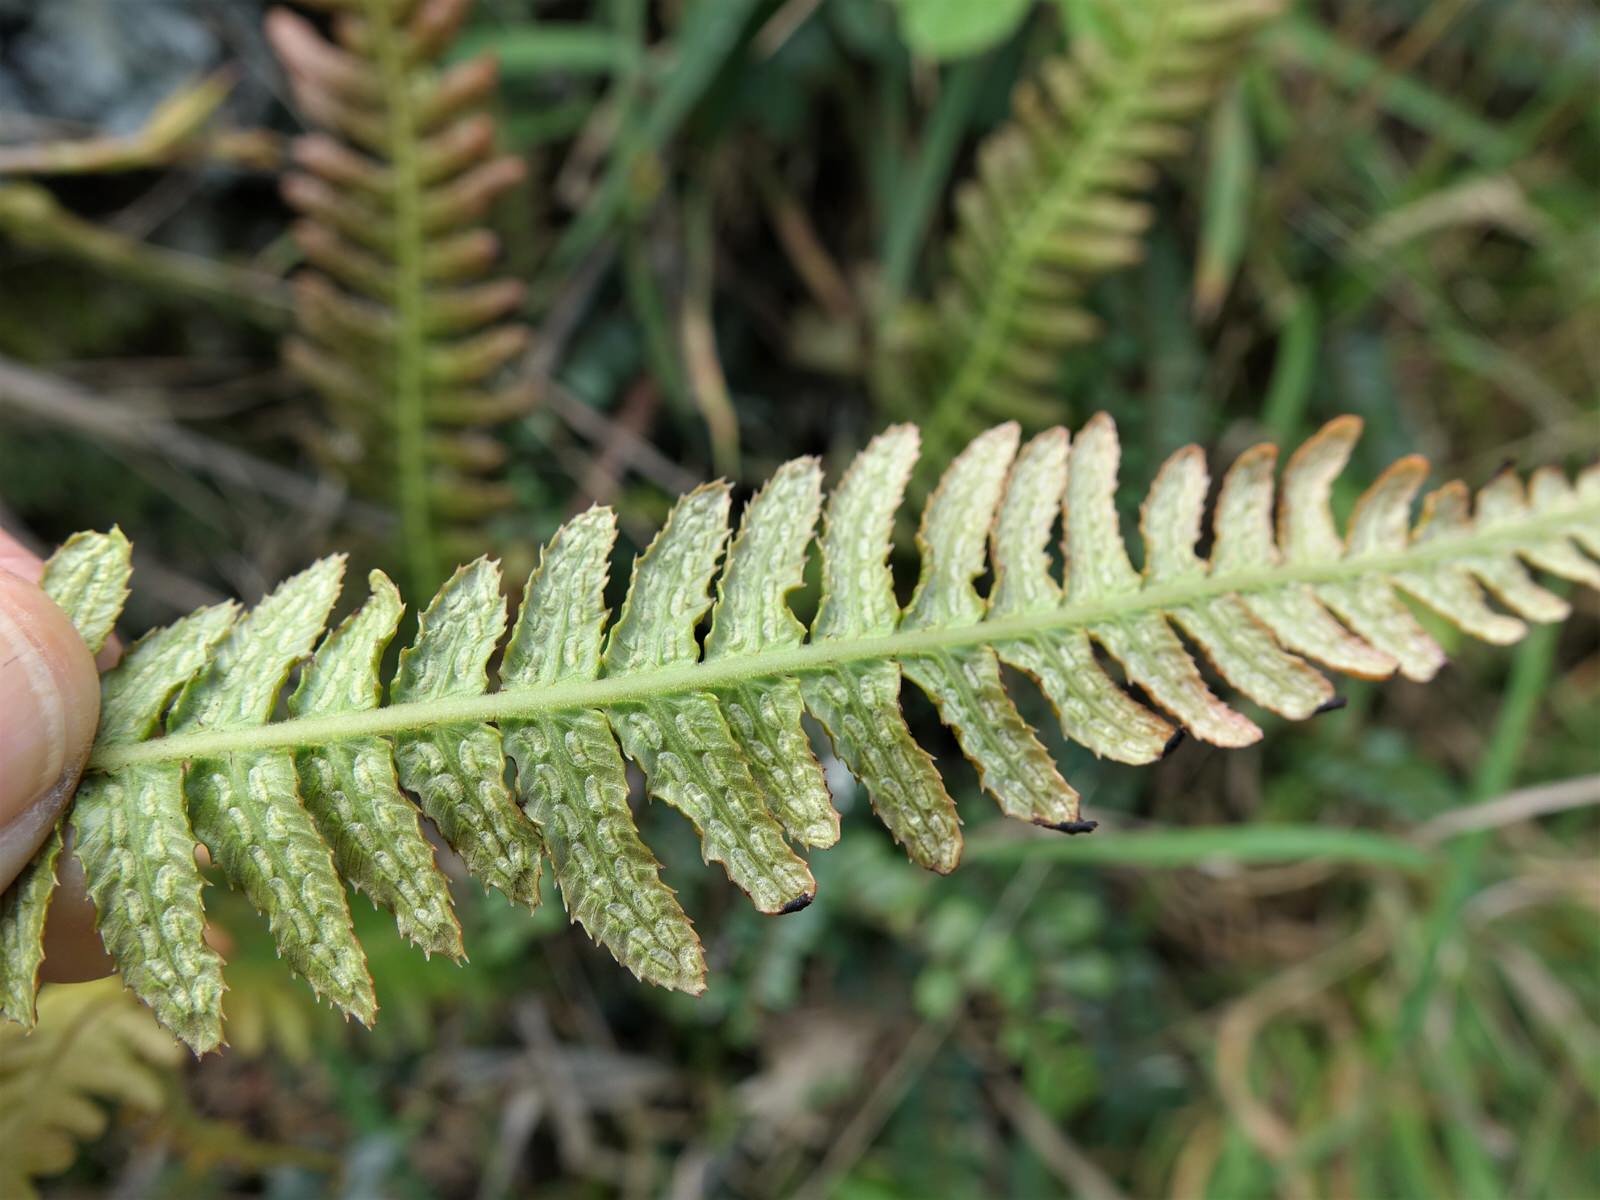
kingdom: Plantae
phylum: Tracheophyta
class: Polypodiopsida
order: Polypodiales
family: Blechnaceae
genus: Doodia
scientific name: Doodia australis
